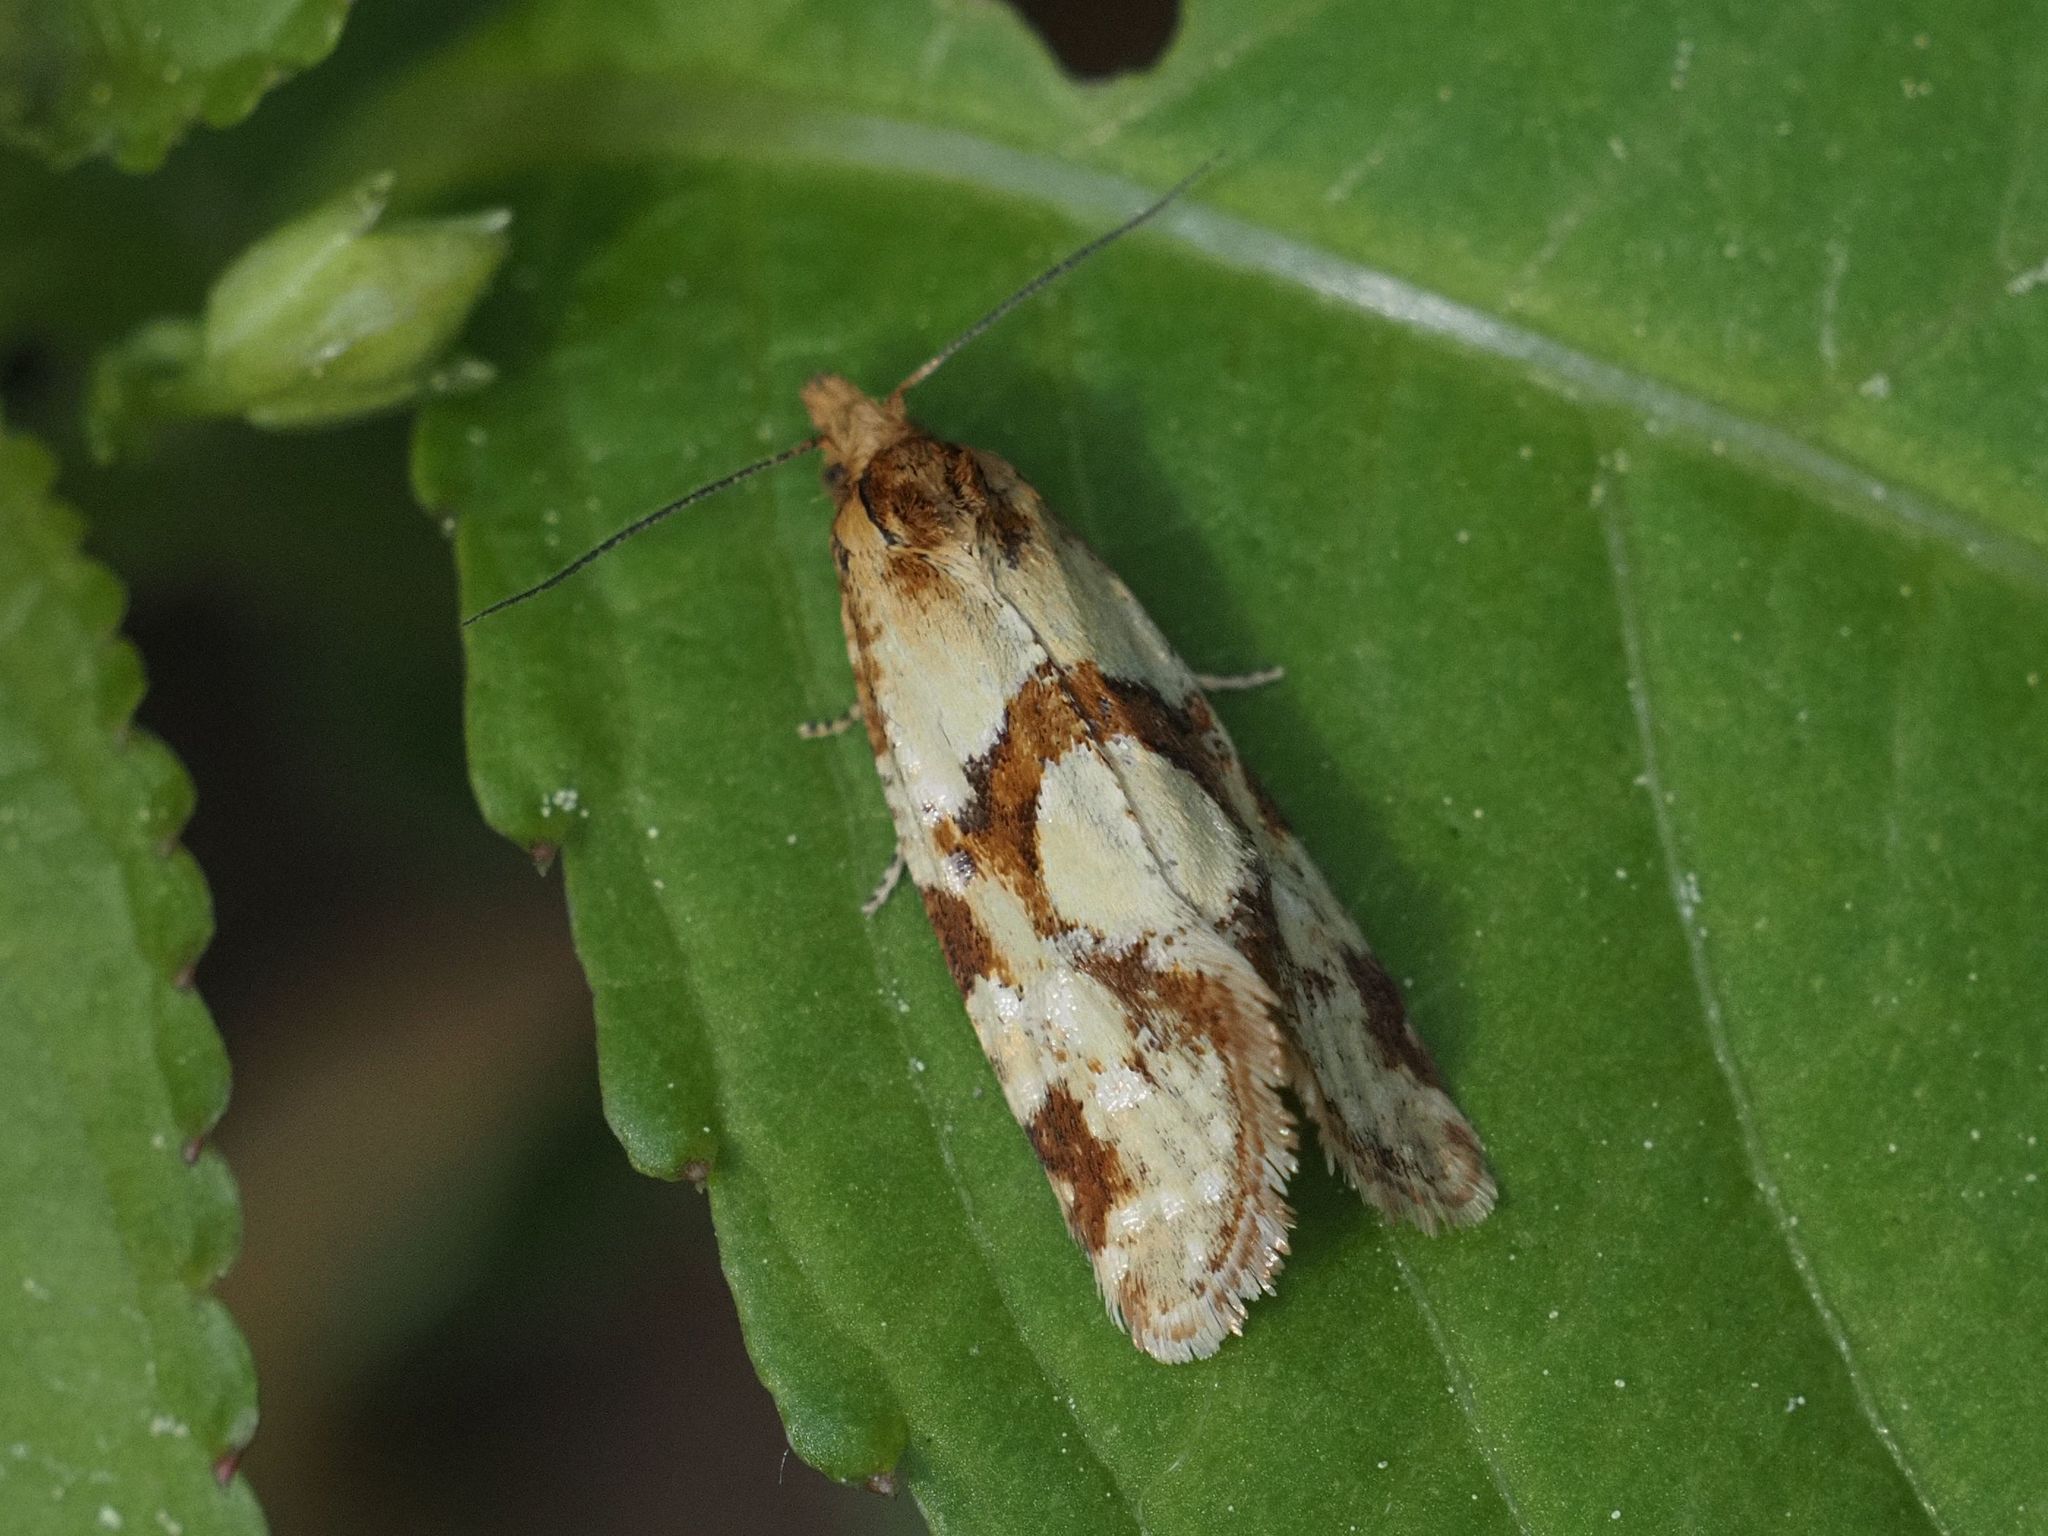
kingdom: Animalia
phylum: Arthropoda
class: Insecta
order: Lepidoptera
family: Tortricidae
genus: Aethes
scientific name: Aethes hartmanniana
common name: Scabious conch
